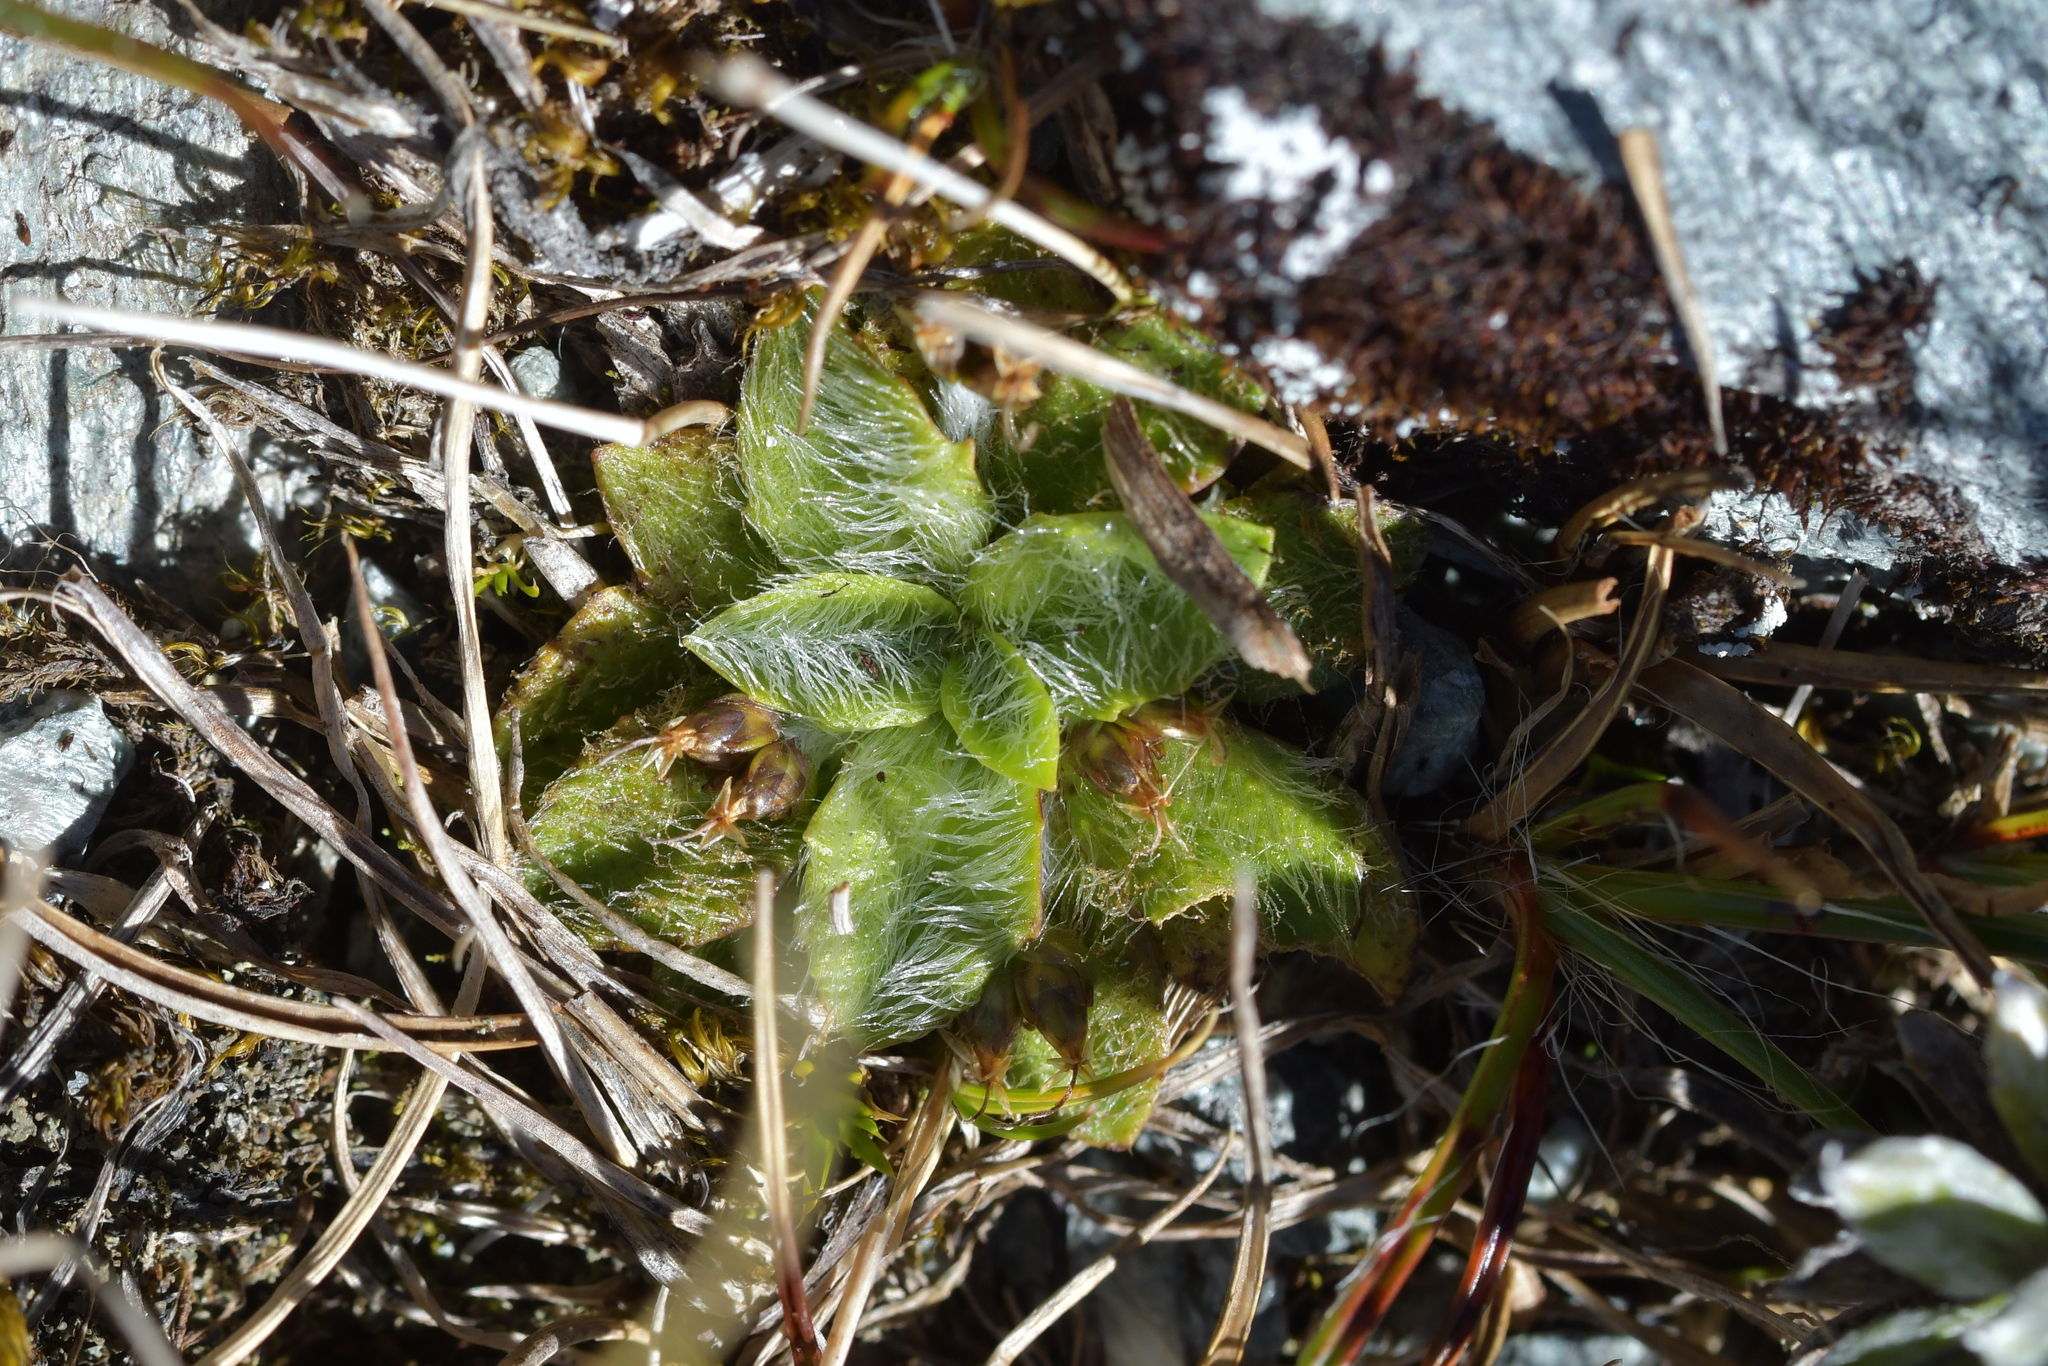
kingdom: Plantae
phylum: Tracheophyta
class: Magnoliopsida
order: Lamiales
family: Plantaginaceae
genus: Plantago
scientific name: Plantago lanigera
